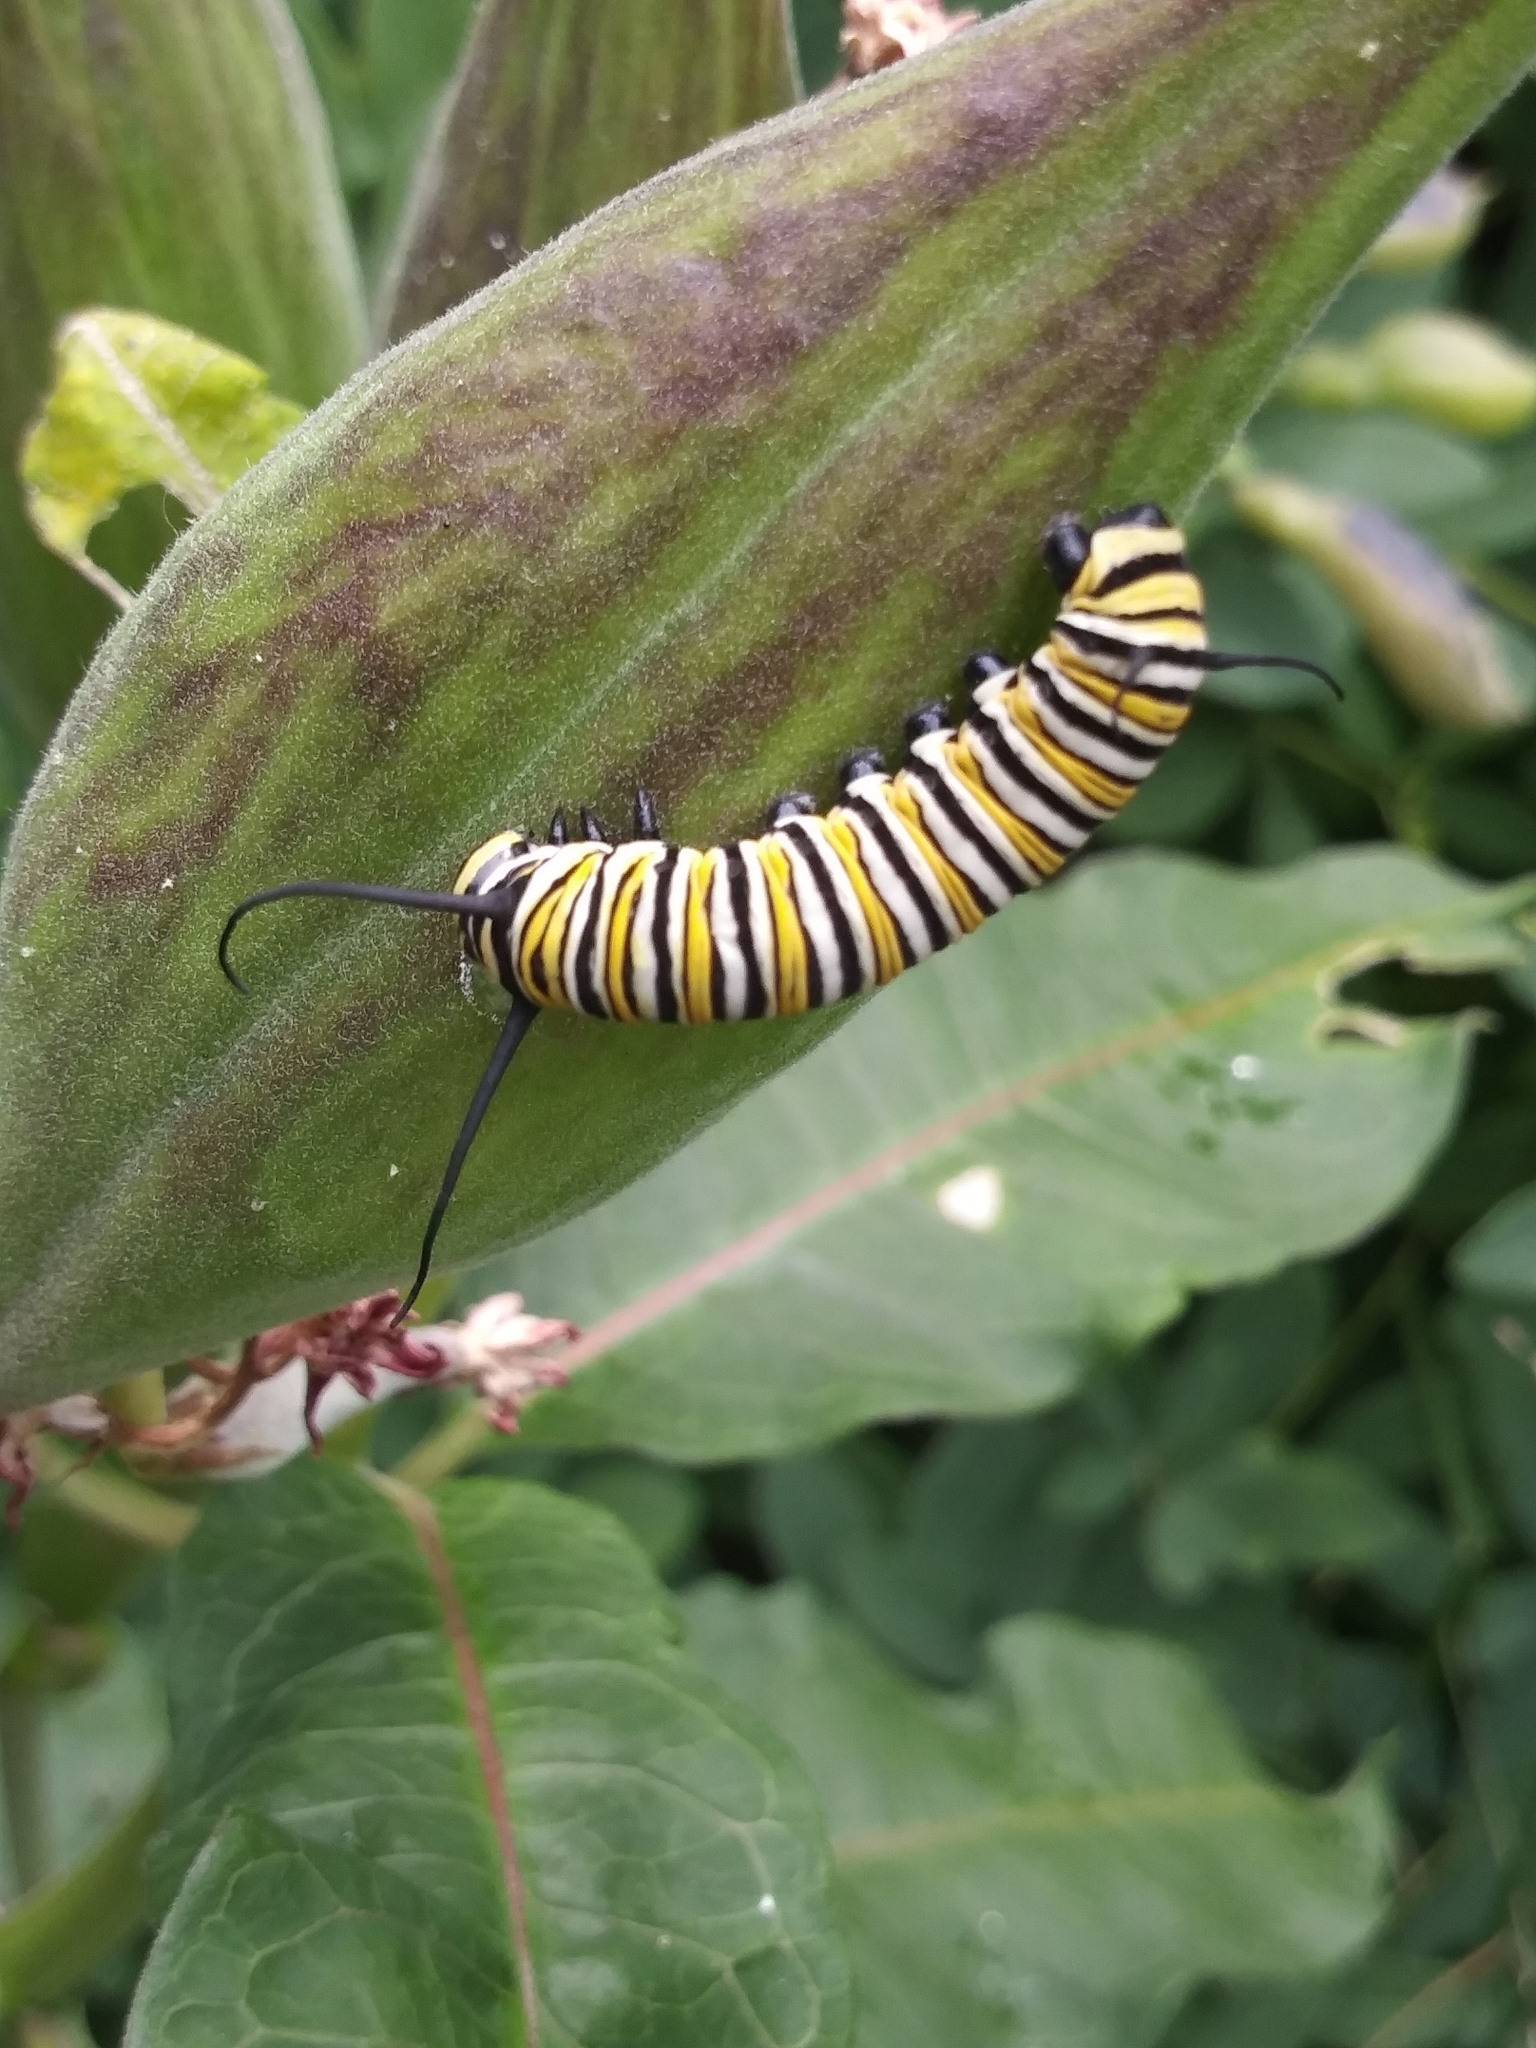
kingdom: Animalia
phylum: Arthropoda
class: Insecta
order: Lepidoptera
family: Nymphalidae
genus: Danaus
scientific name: Danaus plexippus
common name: Monarch
